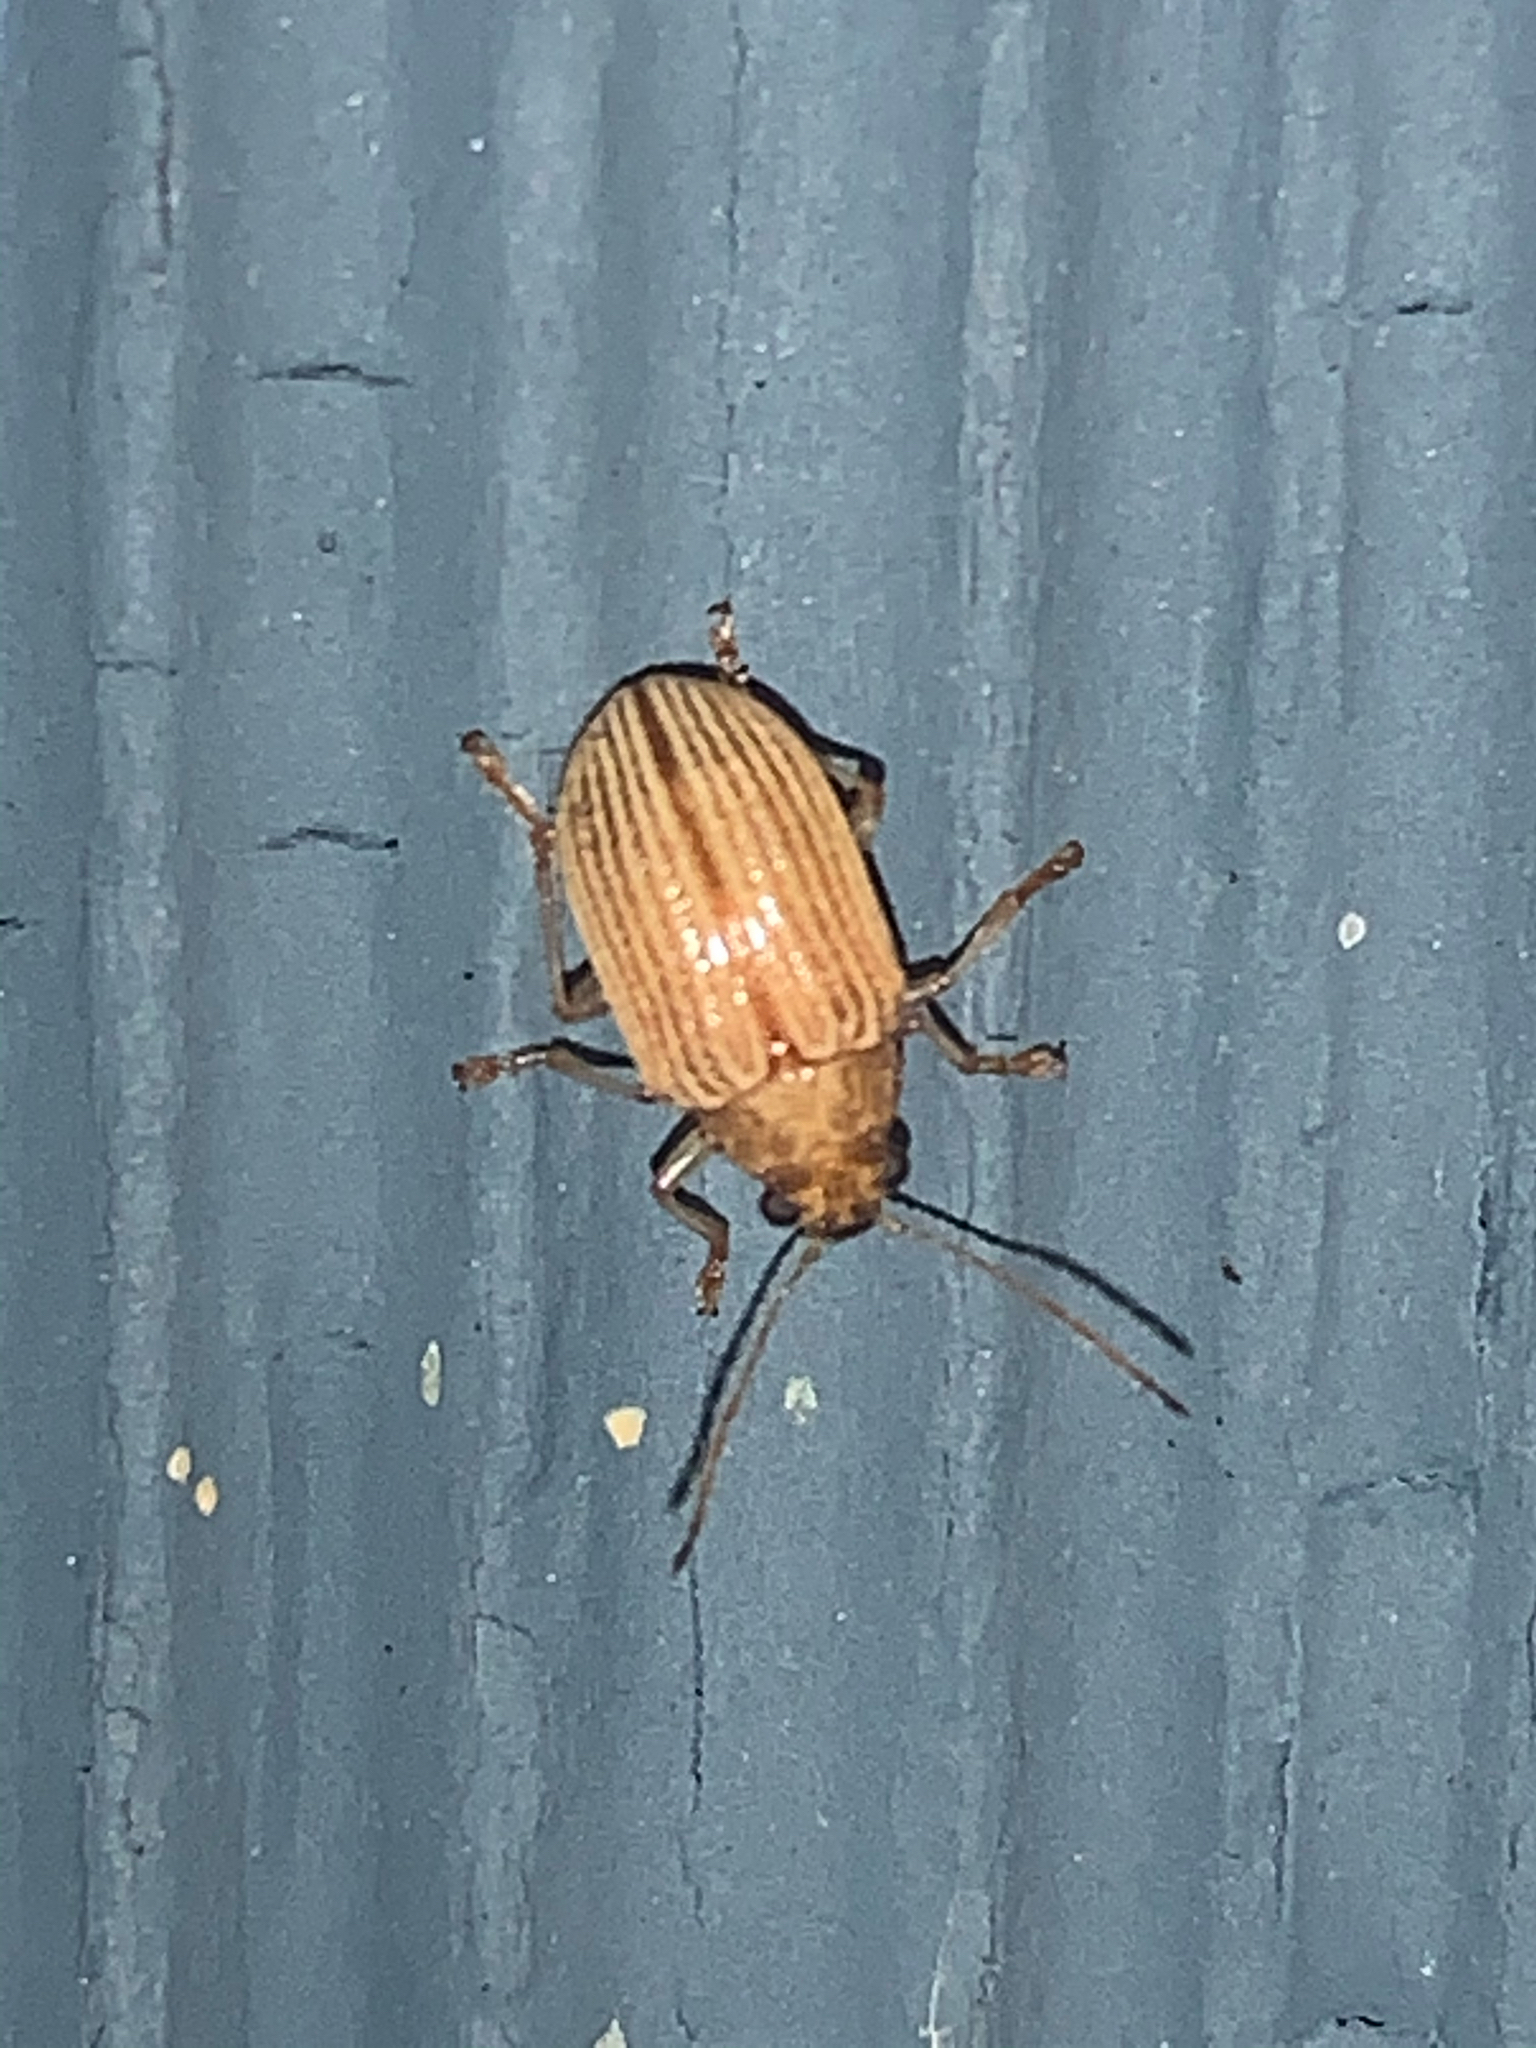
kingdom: Animalia
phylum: Arthropoda
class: Insecta
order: Coleoptera
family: Chrysomelidae
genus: Colaspis
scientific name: Colaspis brunnea
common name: Grape colaspis
